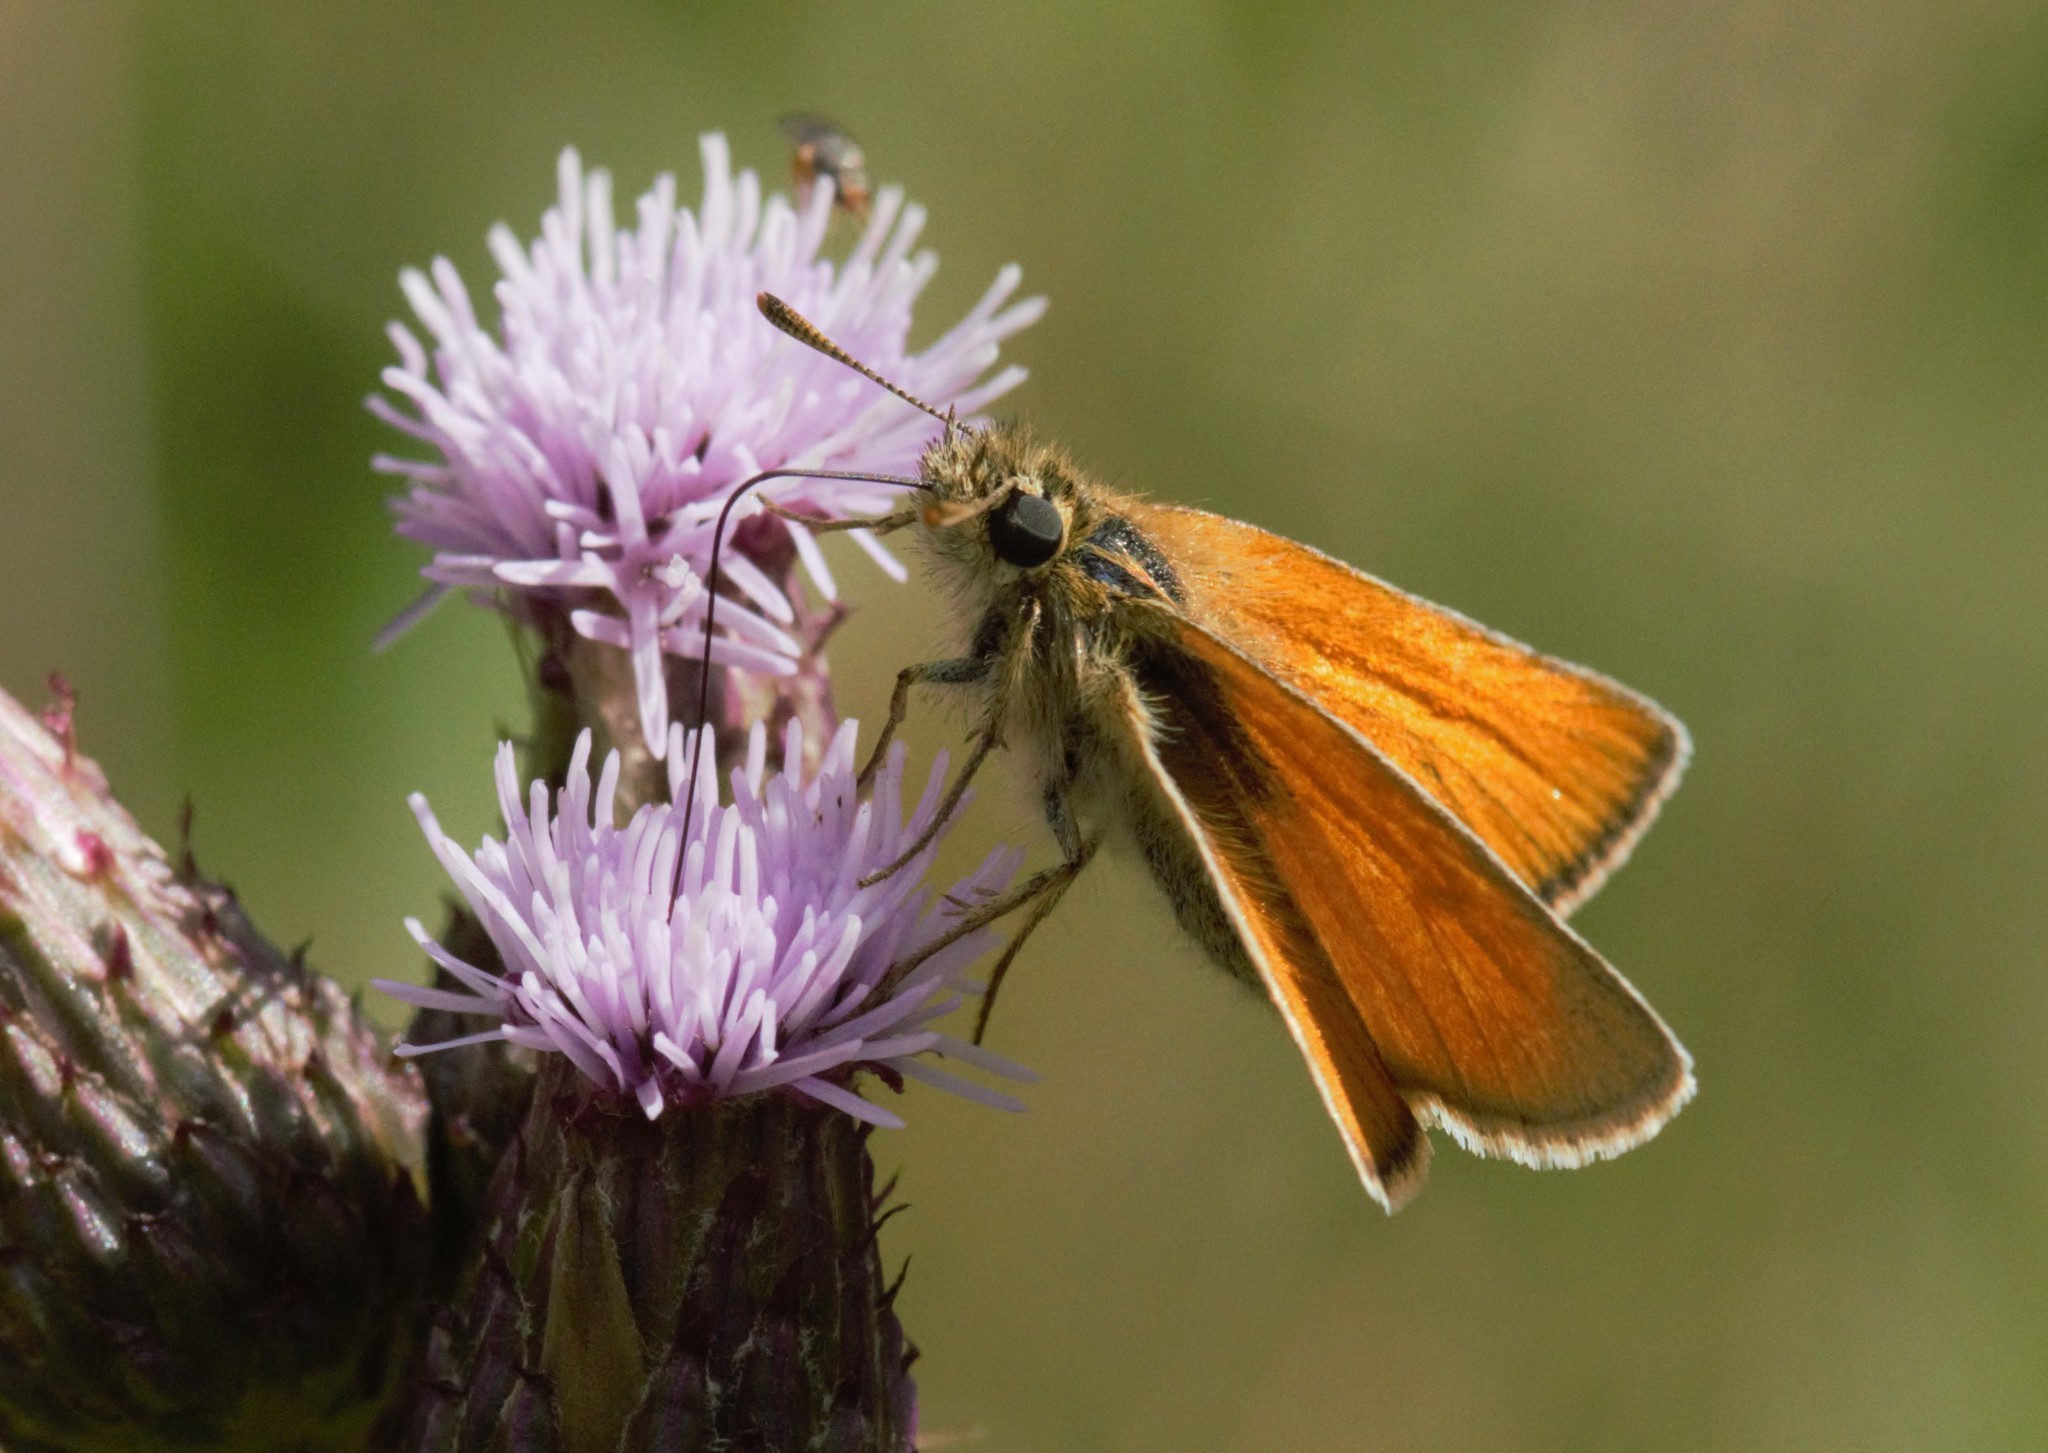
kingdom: Animalia
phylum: Arthropoda
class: Insecta
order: Lepidoptera
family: Hesperiidae
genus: Thymelicus
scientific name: Thymelicus sylvestris
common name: Small skipper
